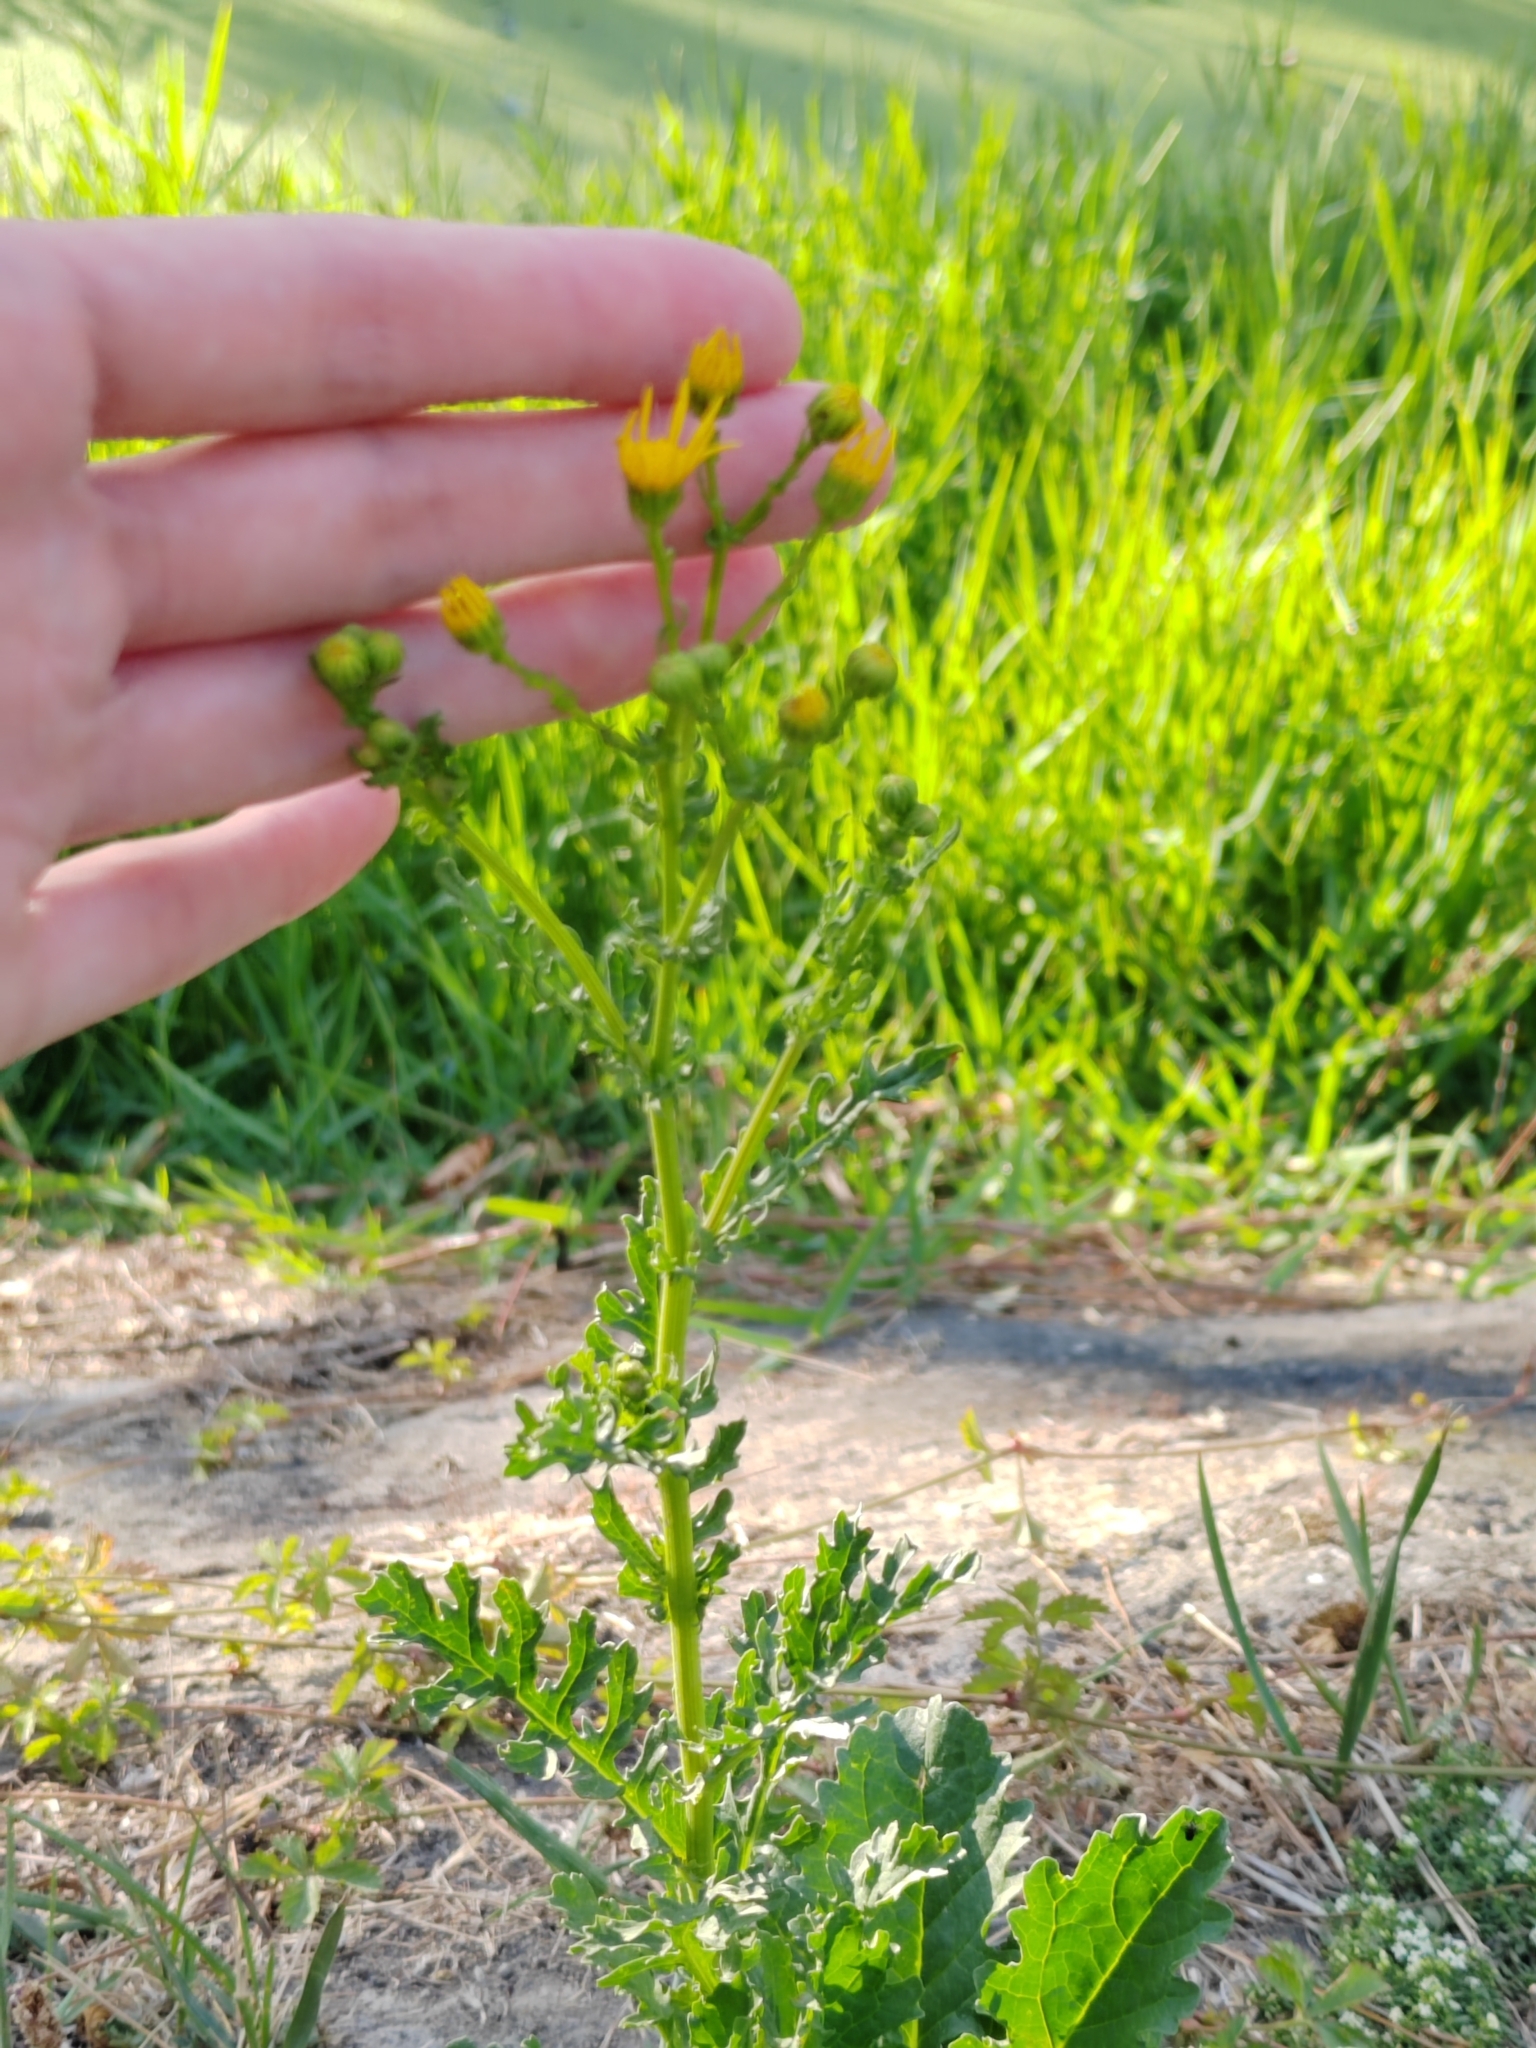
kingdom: Plantae
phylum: Tracheophyta
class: Magnoliopsida
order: Asterales
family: Asteraceae
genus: Senecio
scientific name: Senecio vernalis
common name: Eastern groundsel
